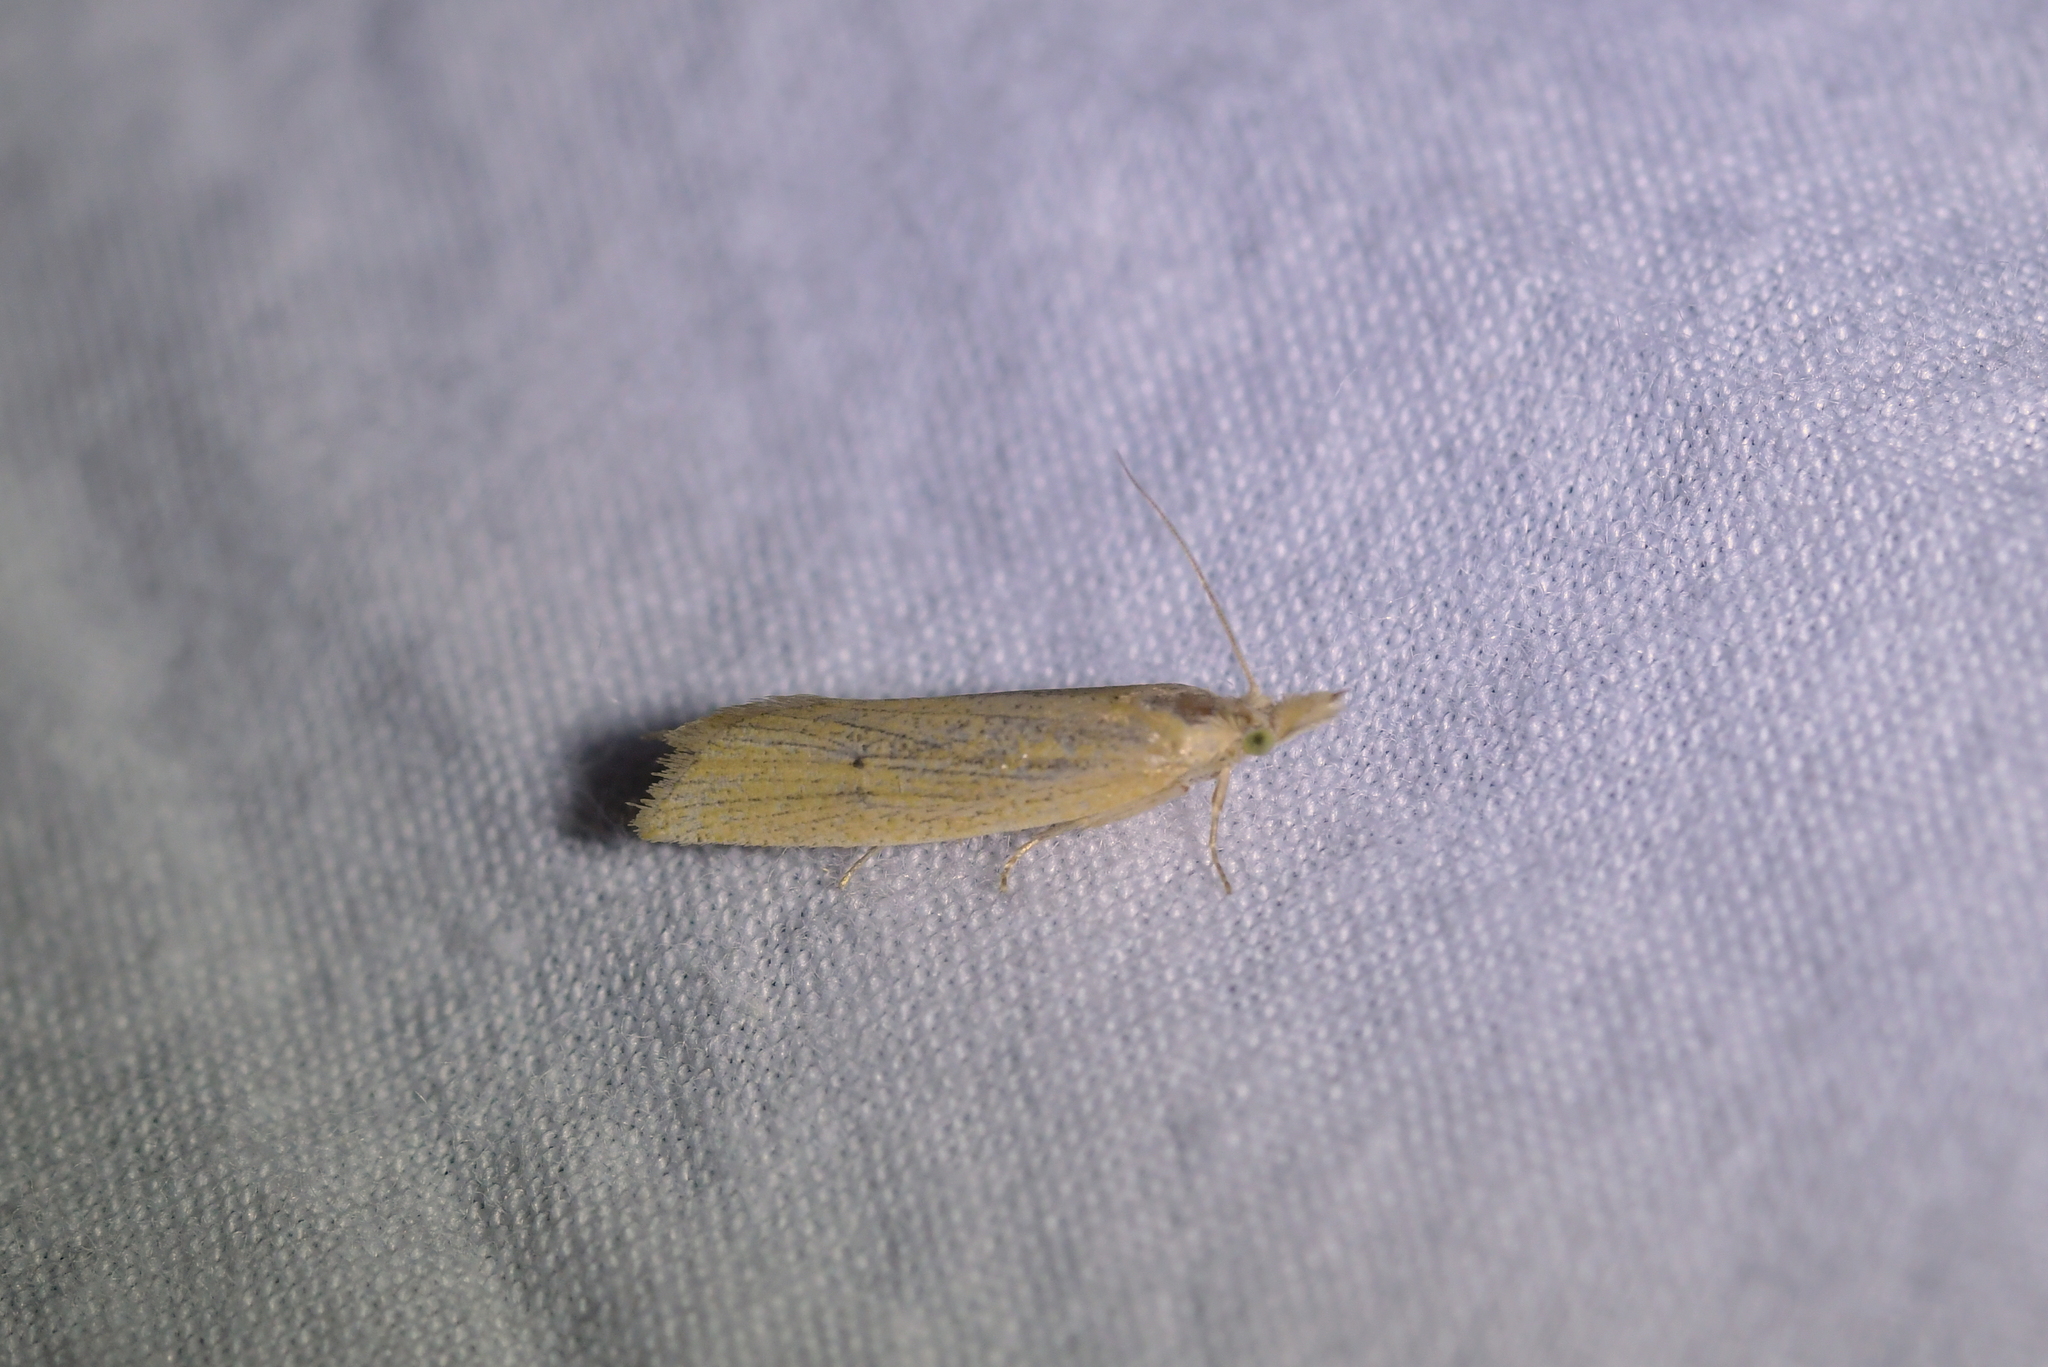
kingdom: Animalia
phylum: Arthropoda
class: Insecta
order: Lepidoptera
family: Tortricidae
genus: Bactra
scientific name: Bactra noteraula
